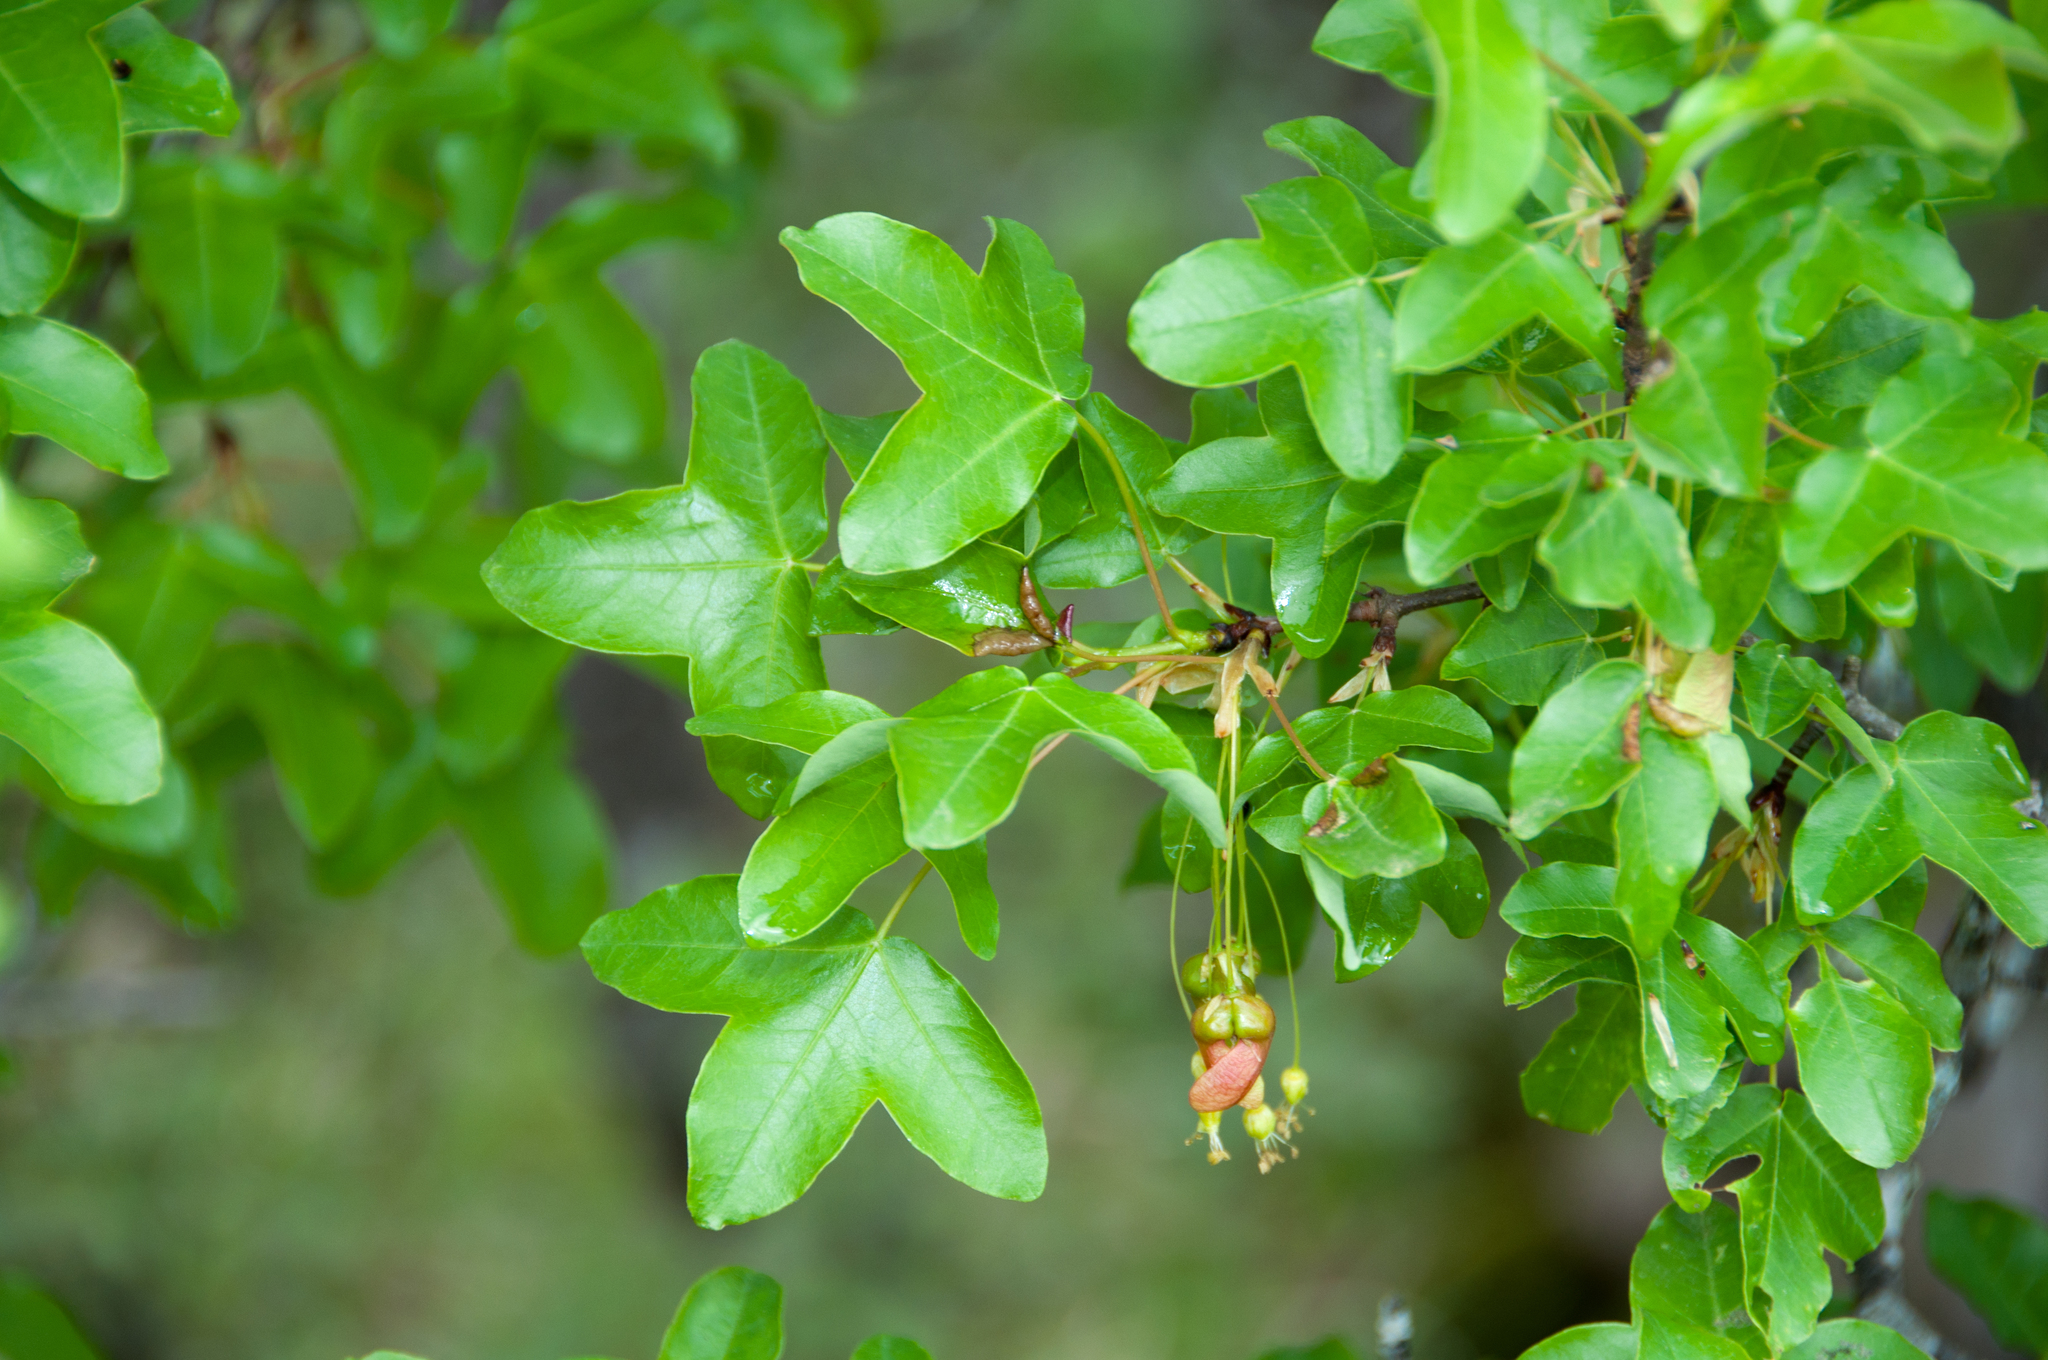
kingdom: Plantae
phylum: Tracheophyta
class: Magnoliopsida
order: Sapindales
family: Sapindaceae
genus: Acer
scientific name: Acer monspessulanum
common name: Montpellier maple
